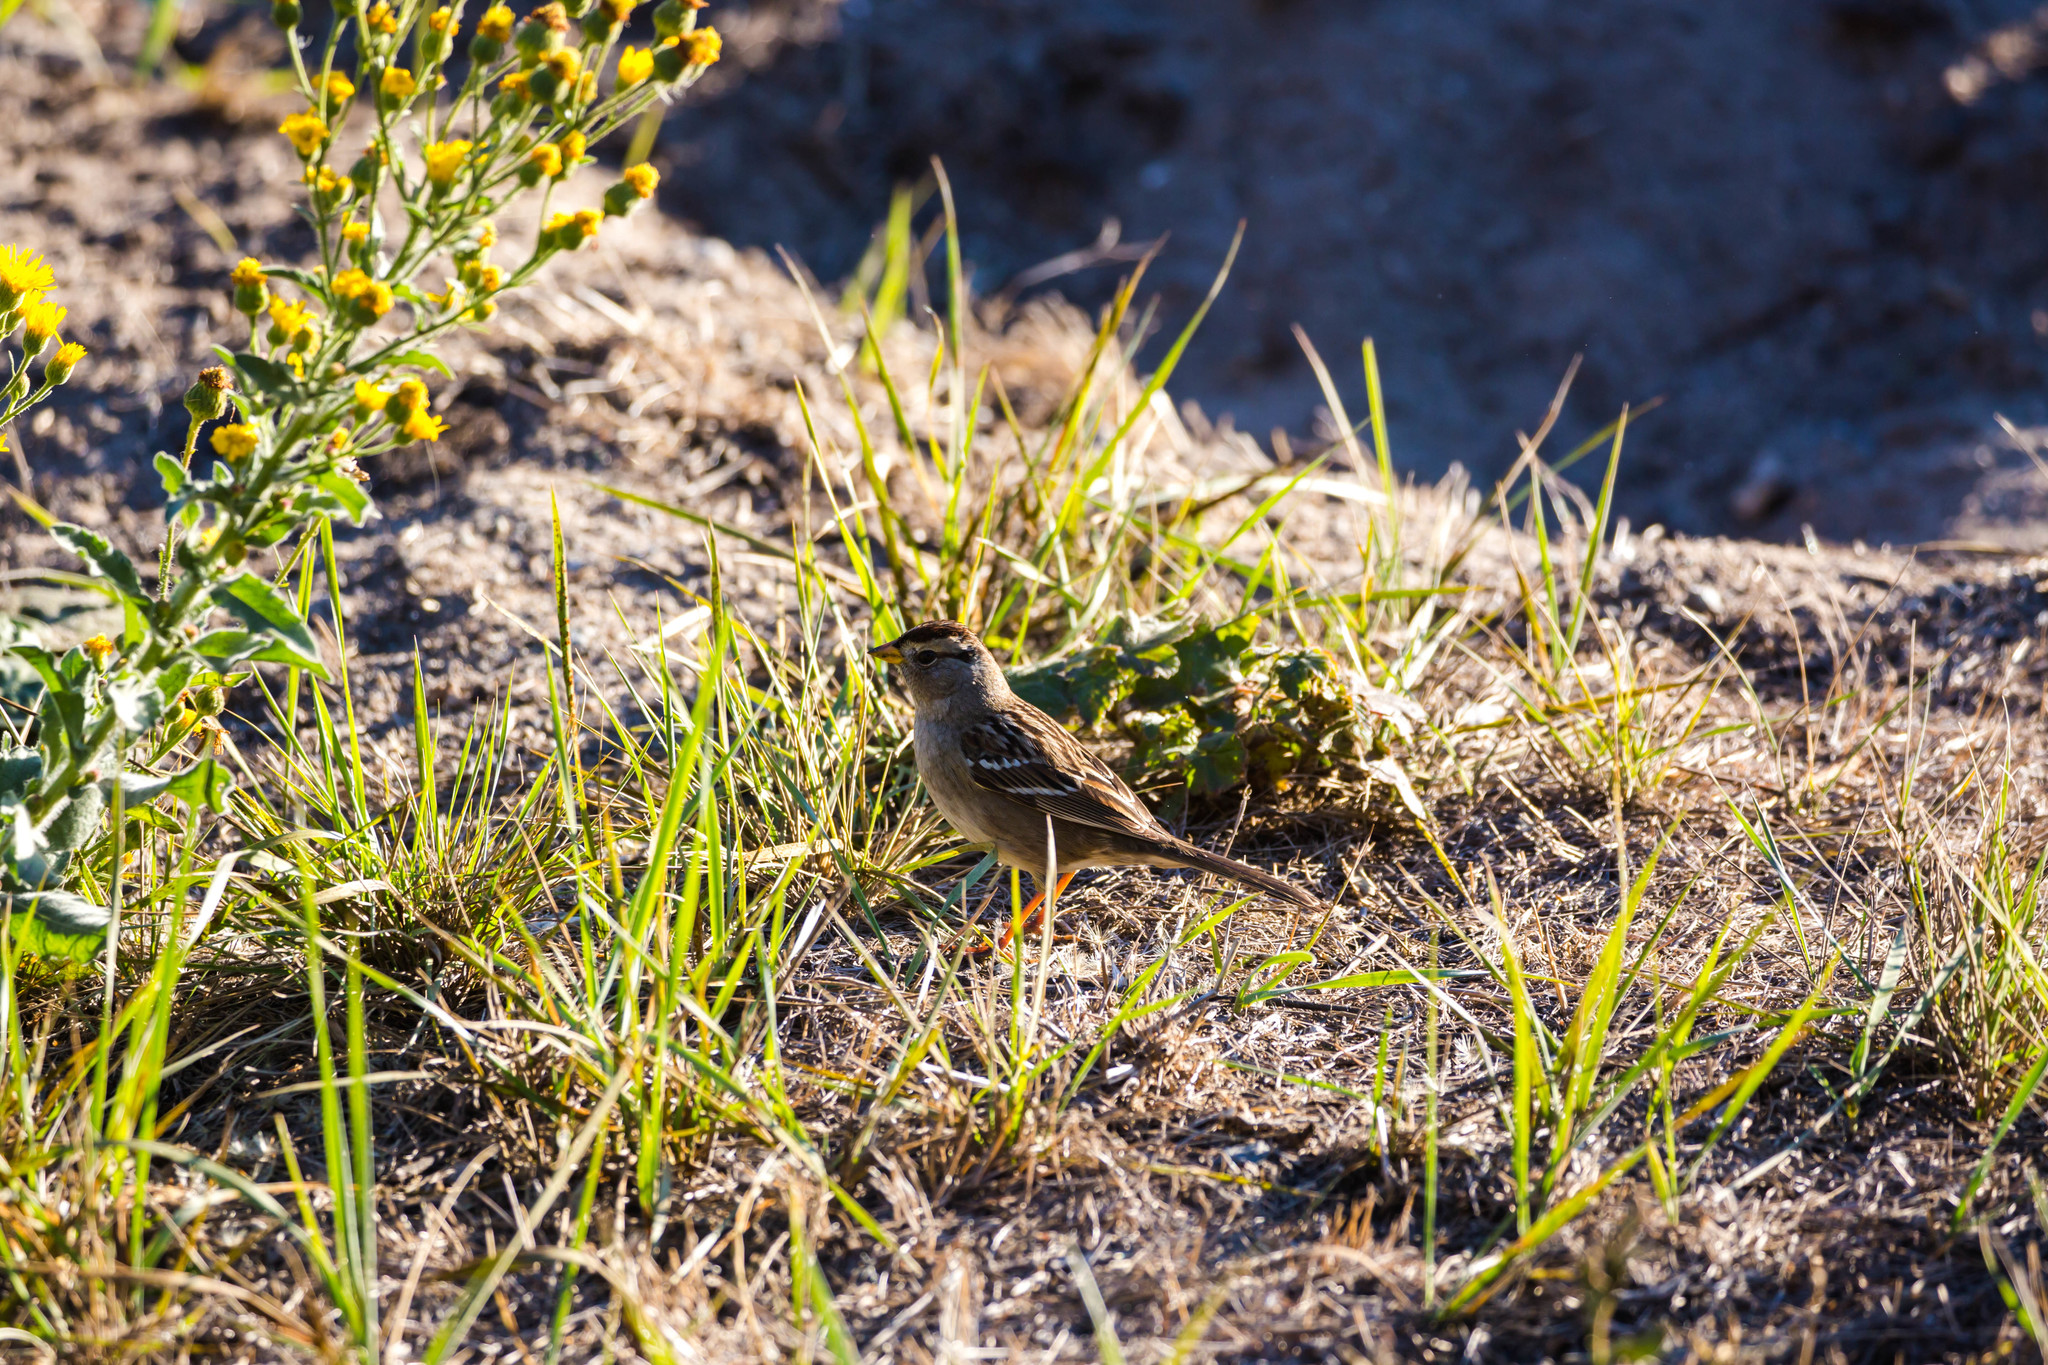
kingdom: Animalia
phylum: Chordata
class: Aves
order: Passeriformes
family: Passerellidae
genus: Zonotrichia
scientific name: Zonotrichia leucophrys
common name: White-crowned sparrow
